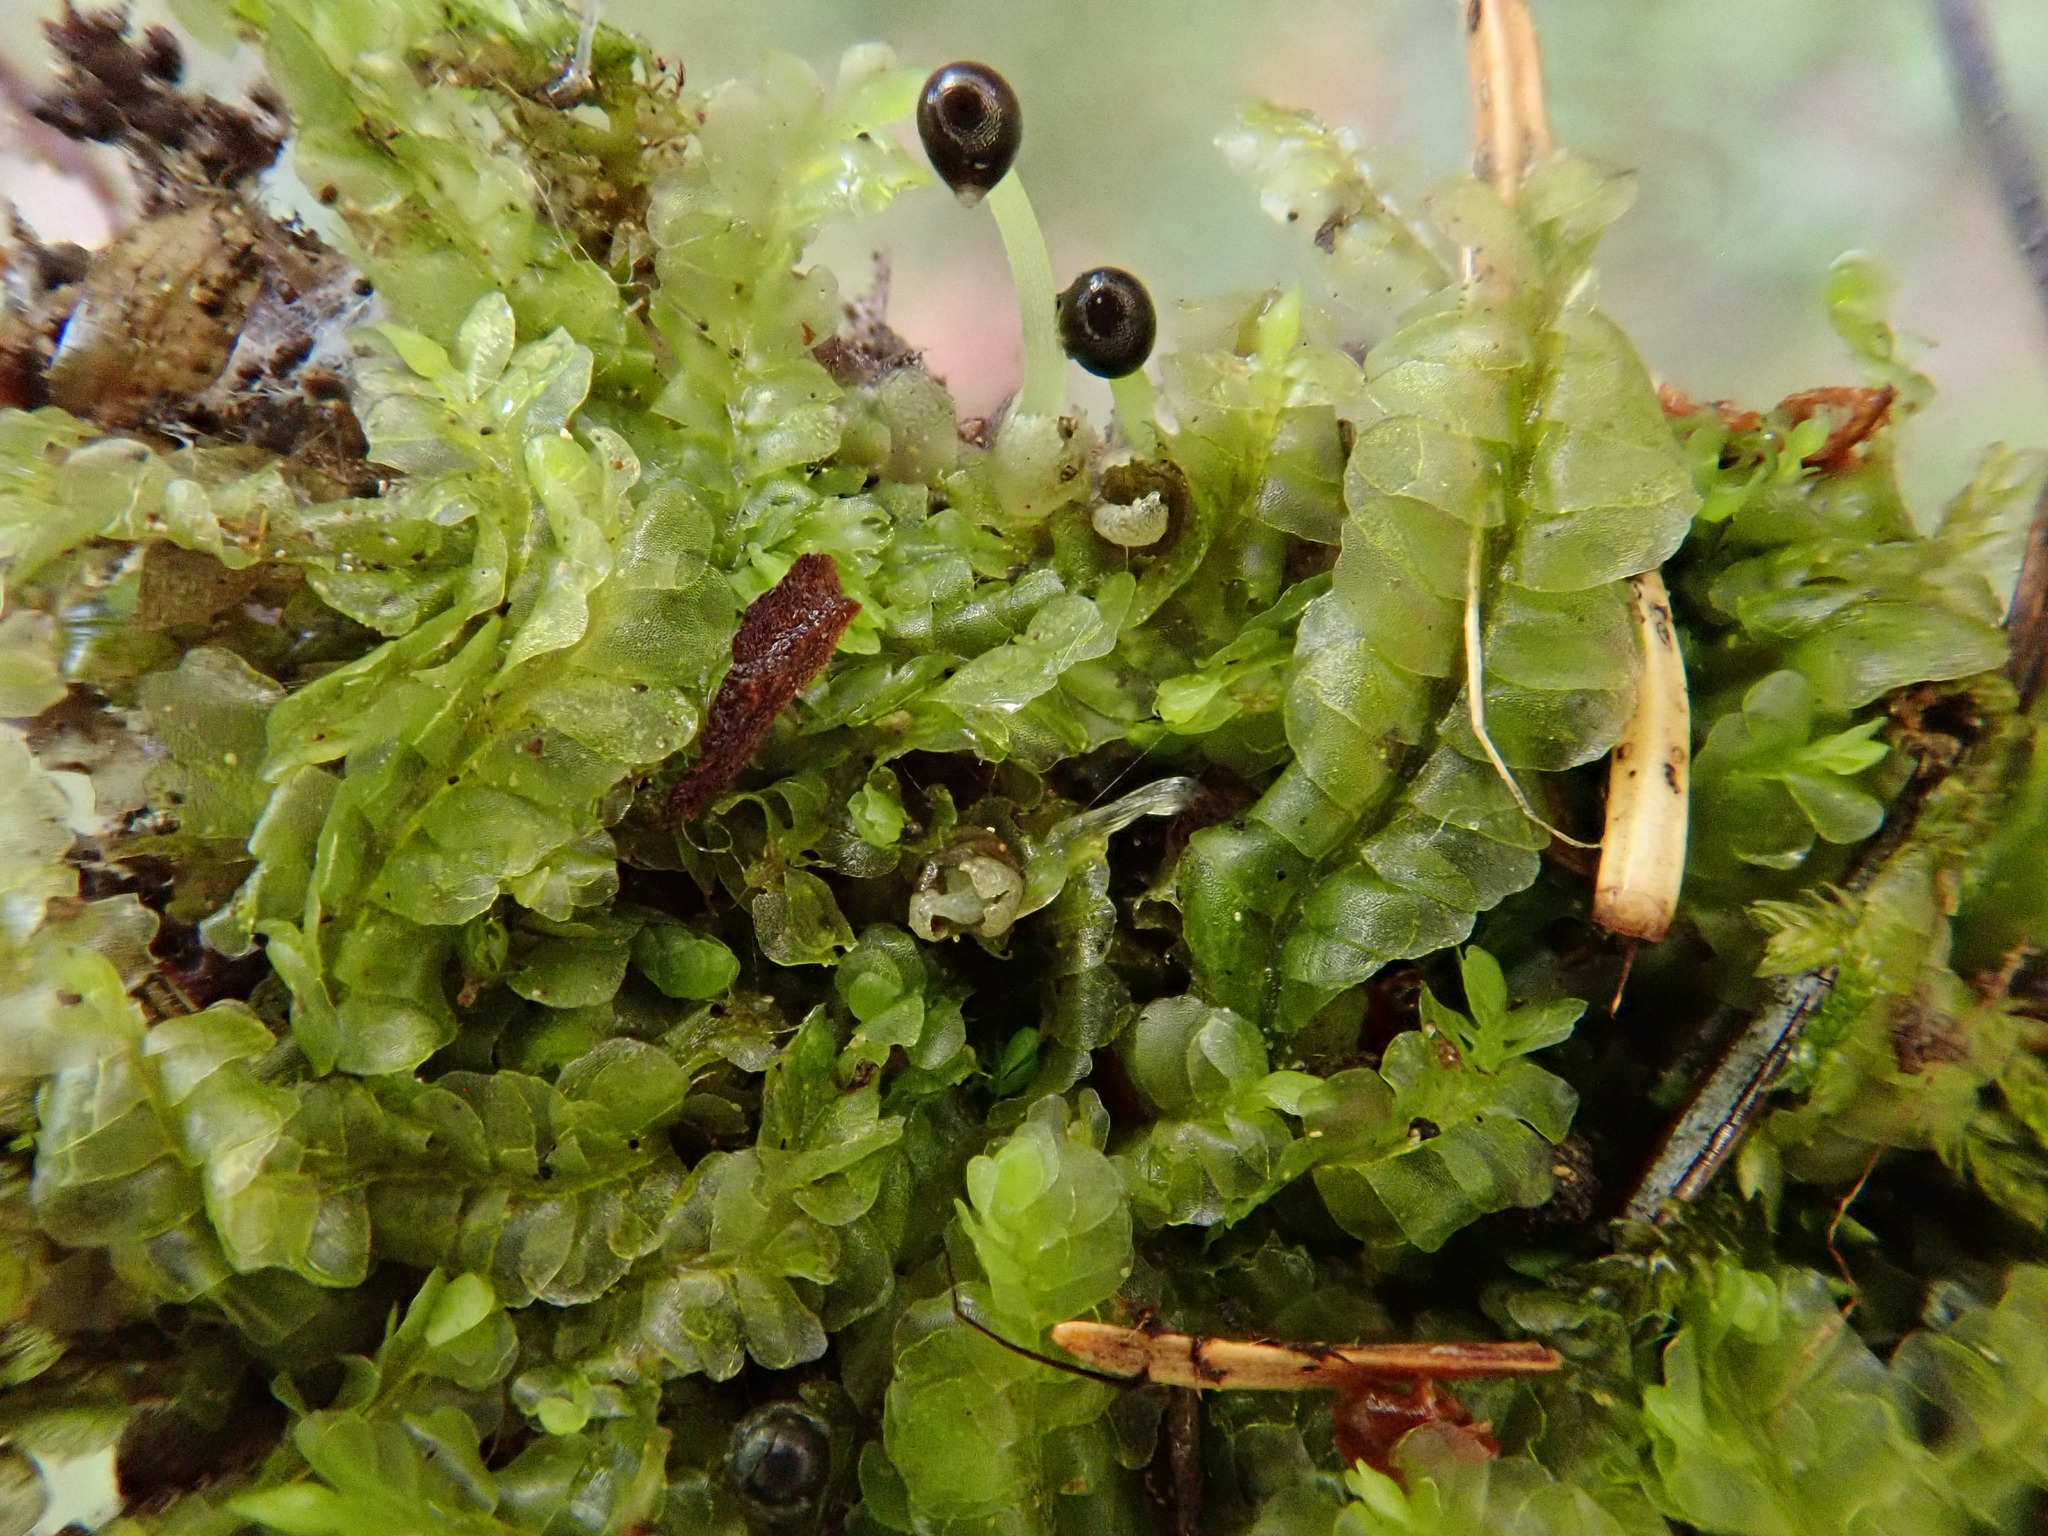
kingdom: Plantae
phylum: Marchantiophyta
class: Jungermanniopsida
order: Jungermanniales
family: Lophocoleaceae
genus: Chiloscyphus
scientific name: Chiloscyphus pallescens
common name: St winifrid's other moss
